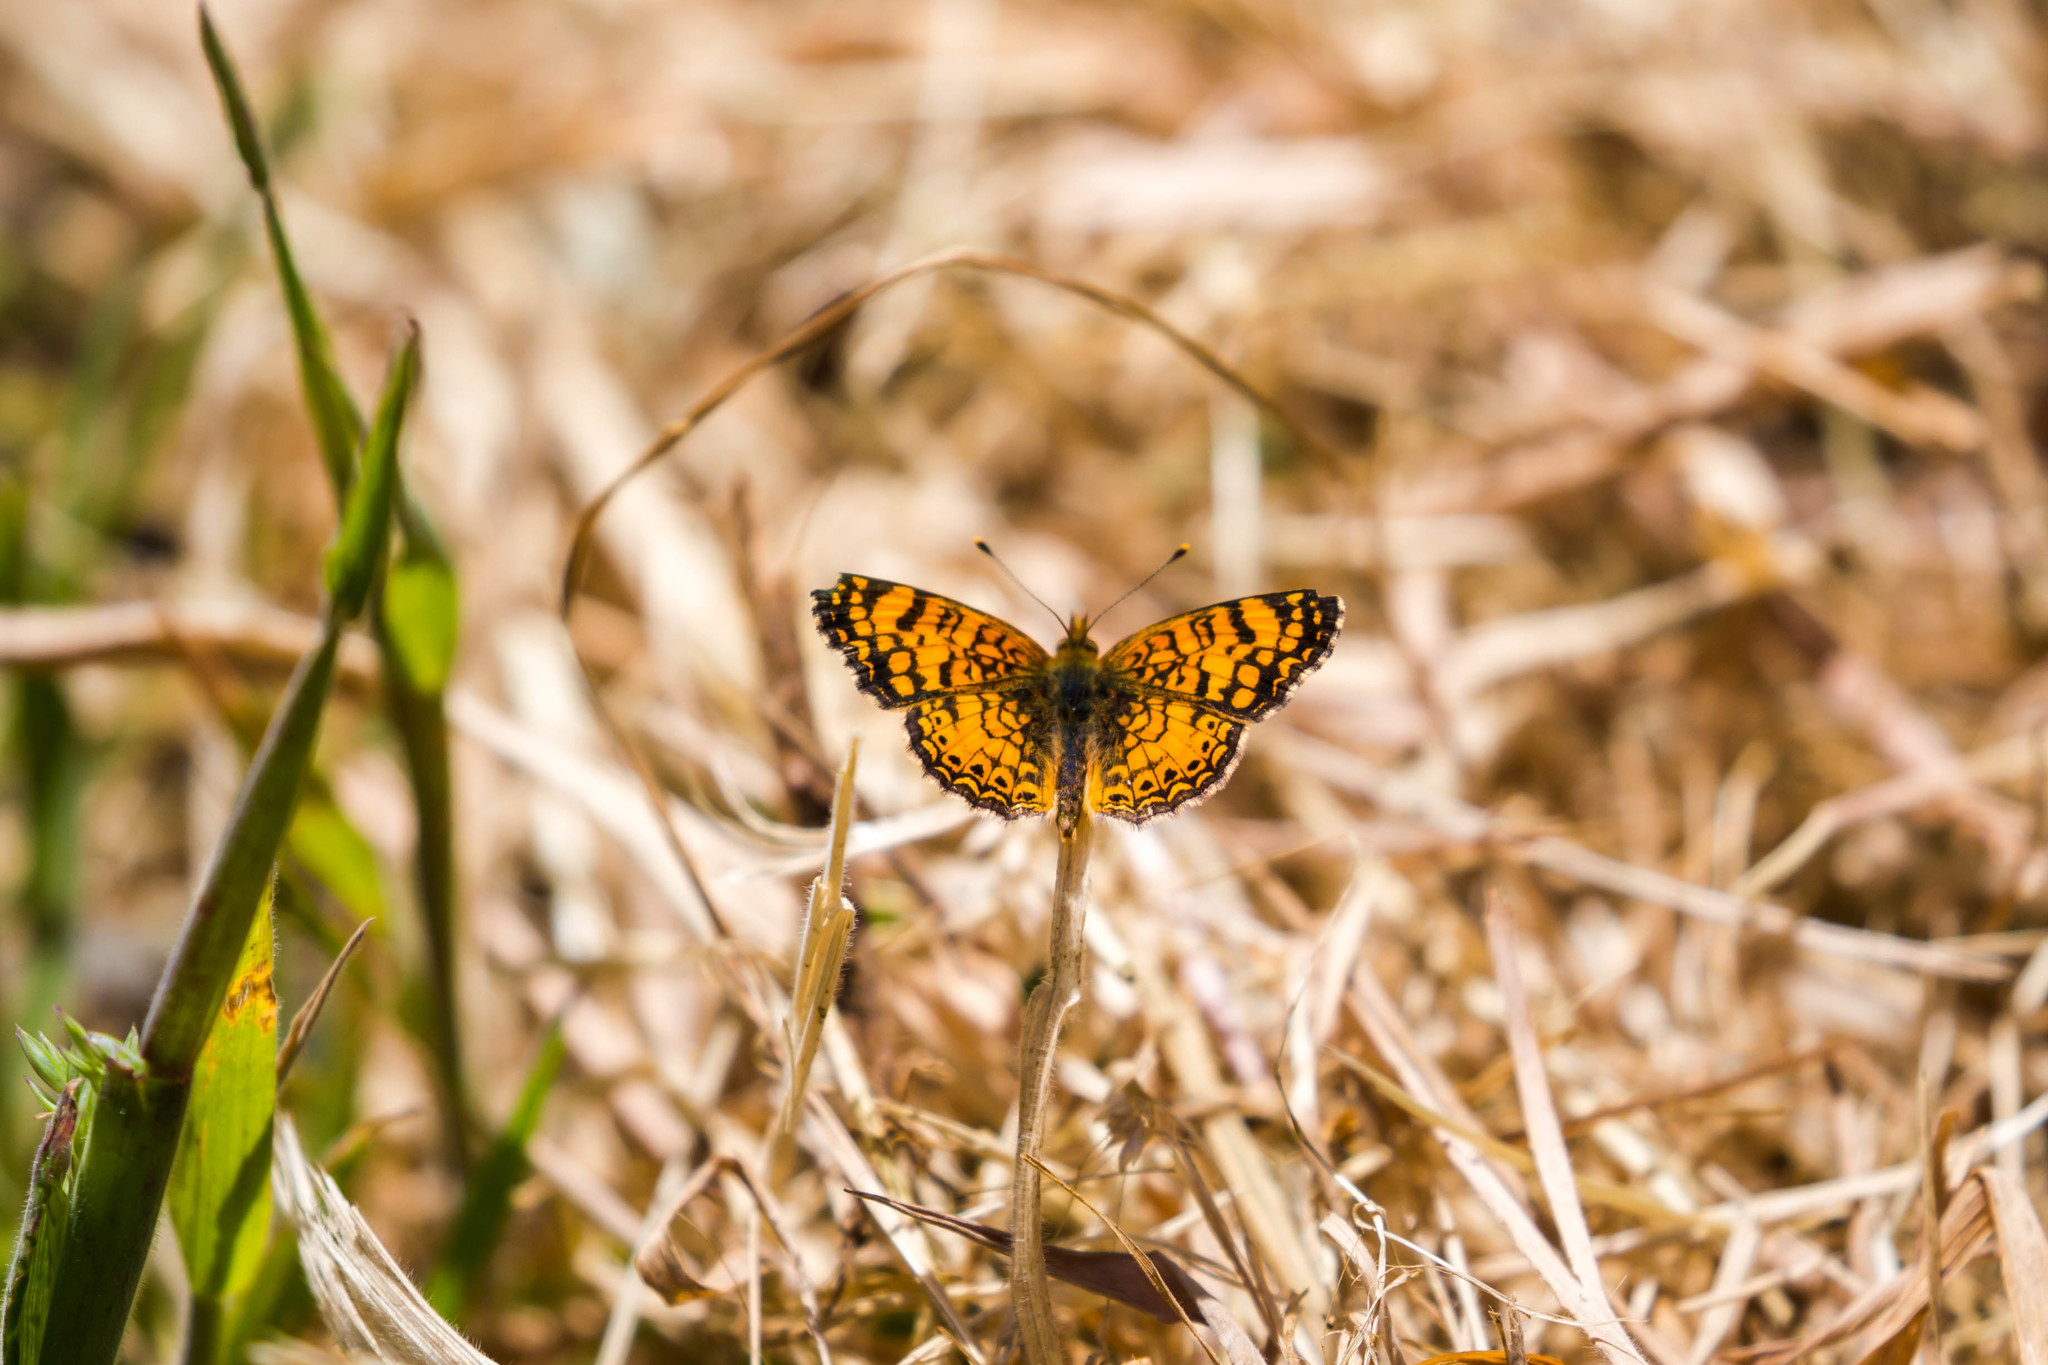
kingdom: Animalia
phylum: Arthropoda
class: Insecta
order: Lepidoptera
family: Nymphalidae
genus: Eresia
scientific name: Eresia aveyrona
